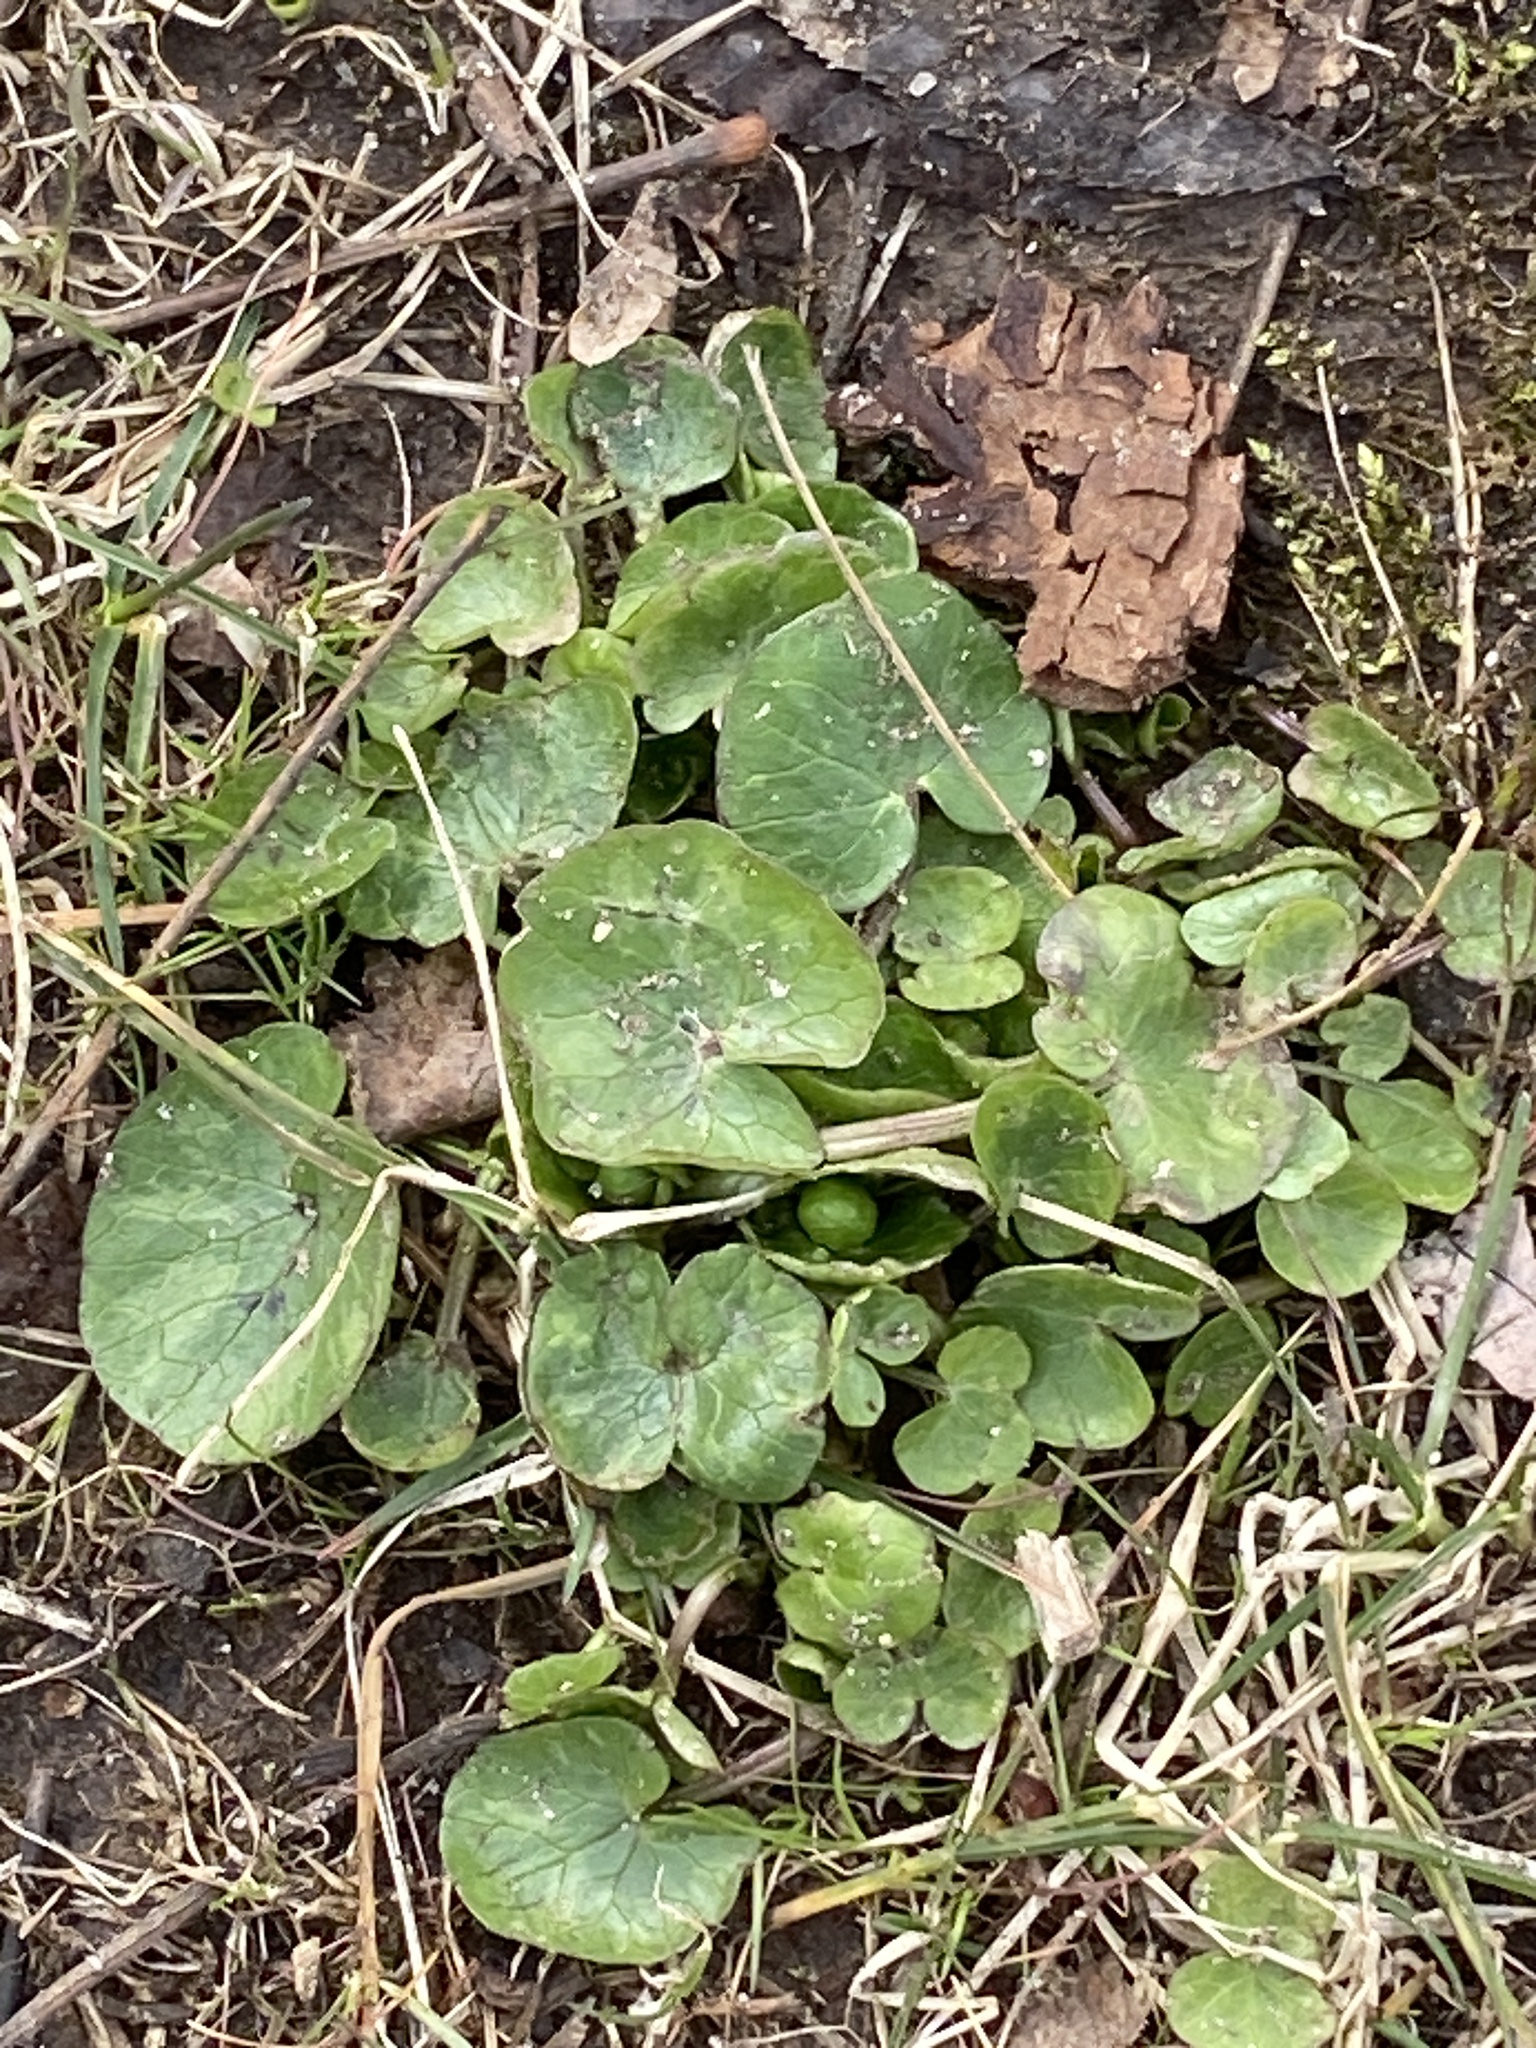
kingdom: Plantae
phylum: Tracheophyta
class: Magnoliopsida
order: Ranunculales
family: Ranunculaceae
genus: Ficaria
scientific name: Ficaria verna
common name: Lesser celandine
